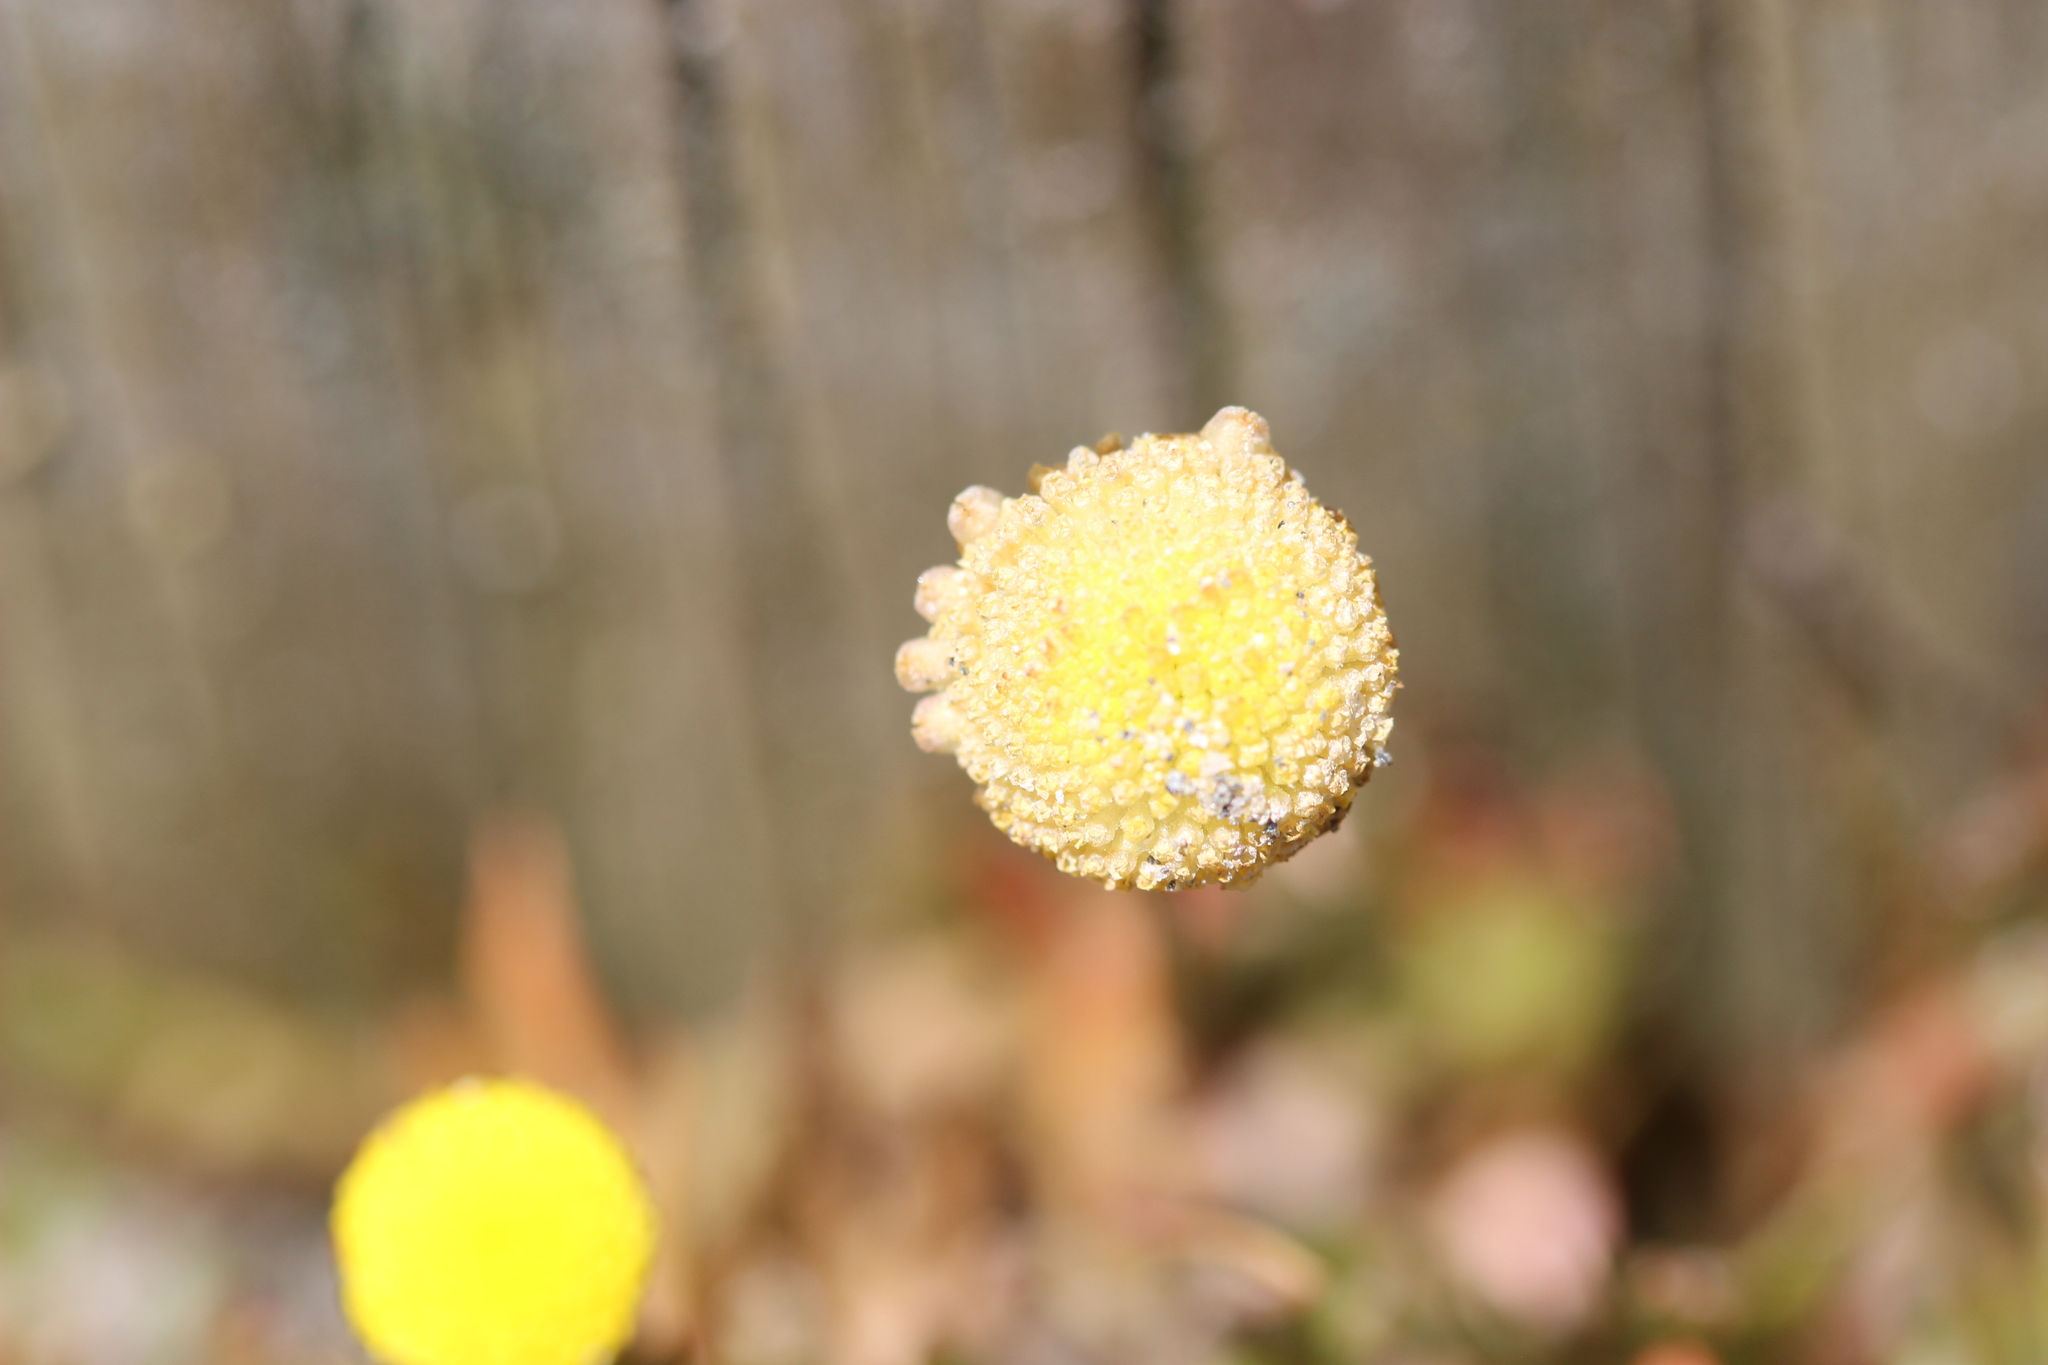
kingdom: Plantae
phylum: Tracheophyta
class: Magnoliopsida
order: Asterales
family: Asteraceae
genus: Cotula
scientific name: Cotula coronopifolia
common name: Buttonweed
